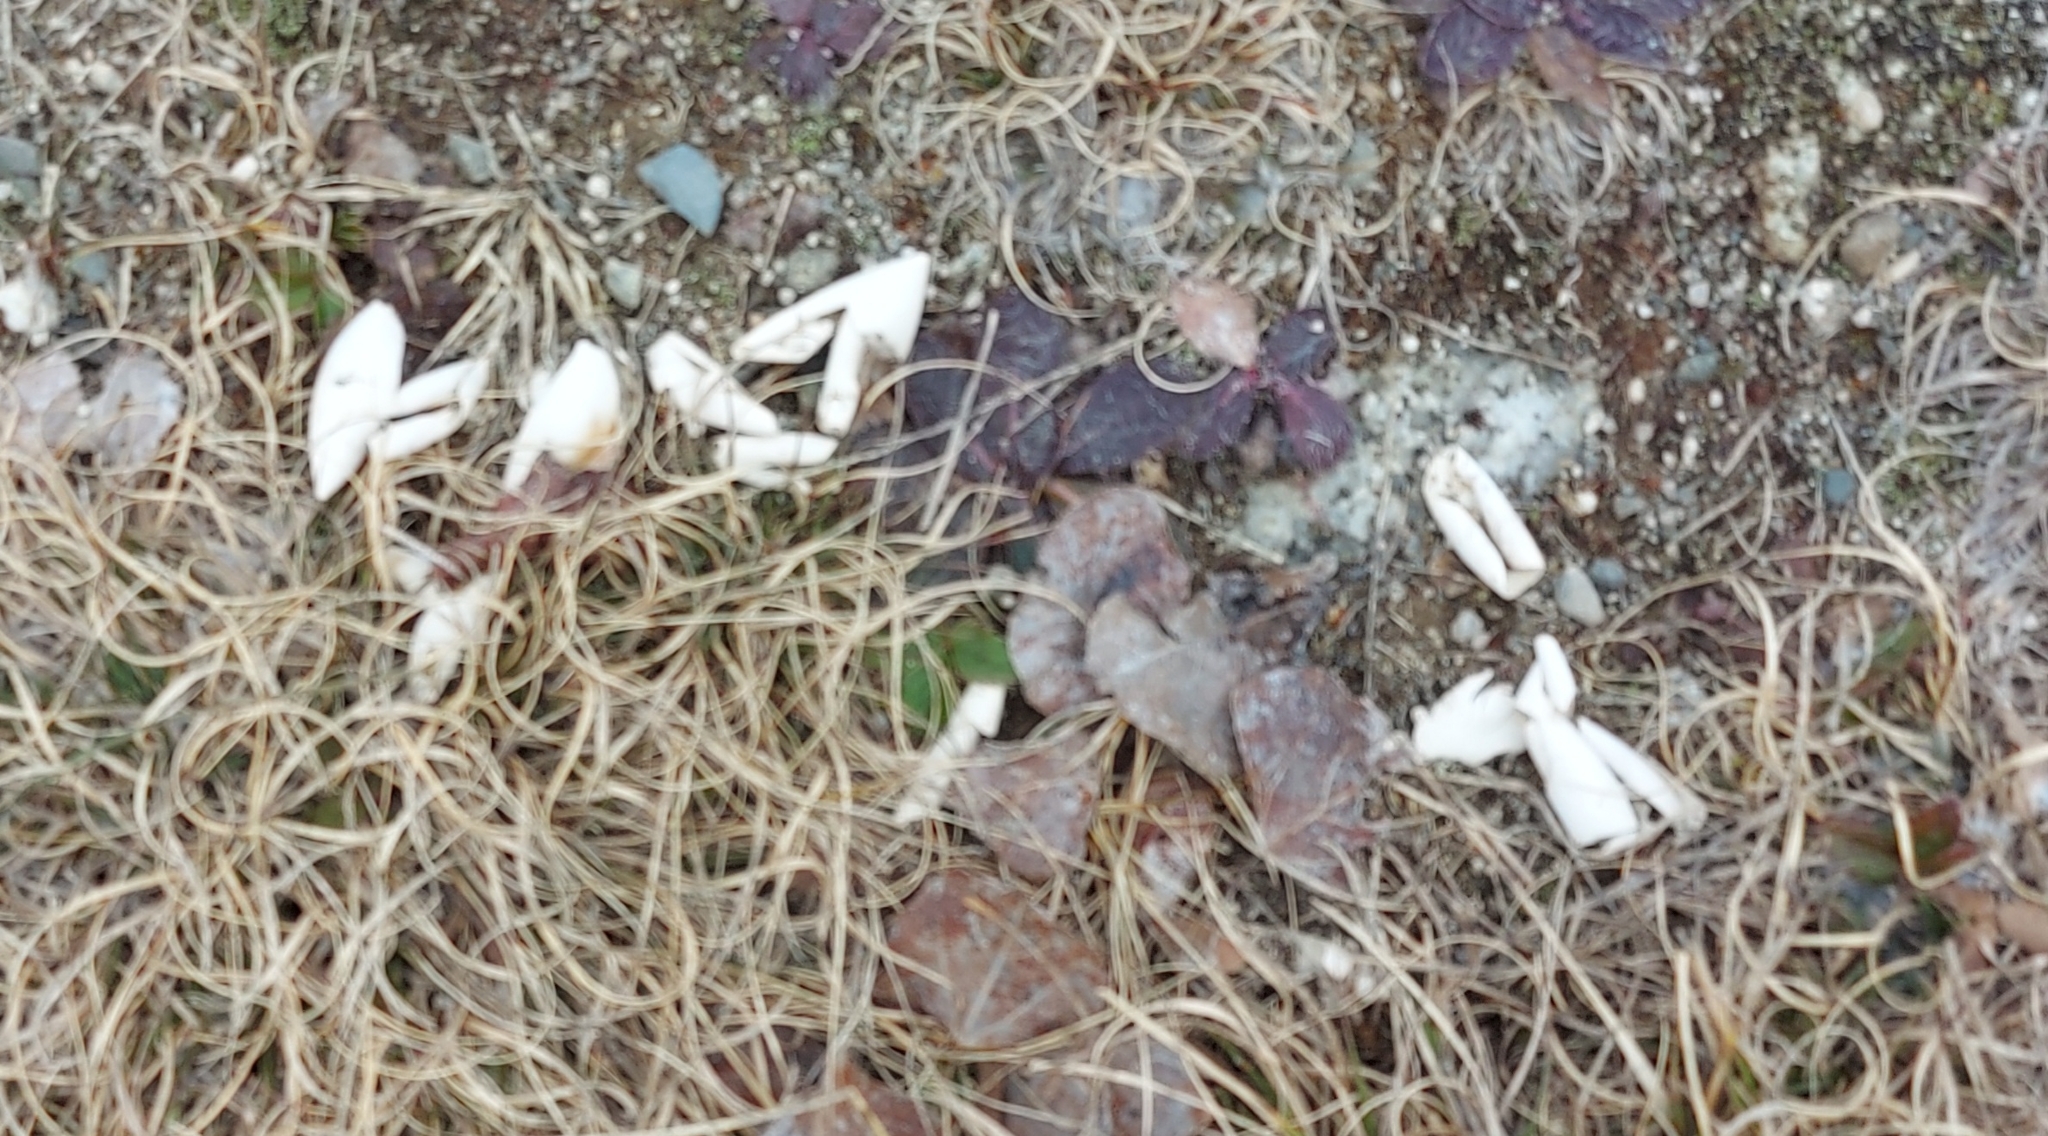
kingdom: Animalia
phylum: Chordata
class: Testudines
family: Chelydridae
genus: Chelydra
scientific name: Chelydra serpentina
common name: Common snapping turtle
